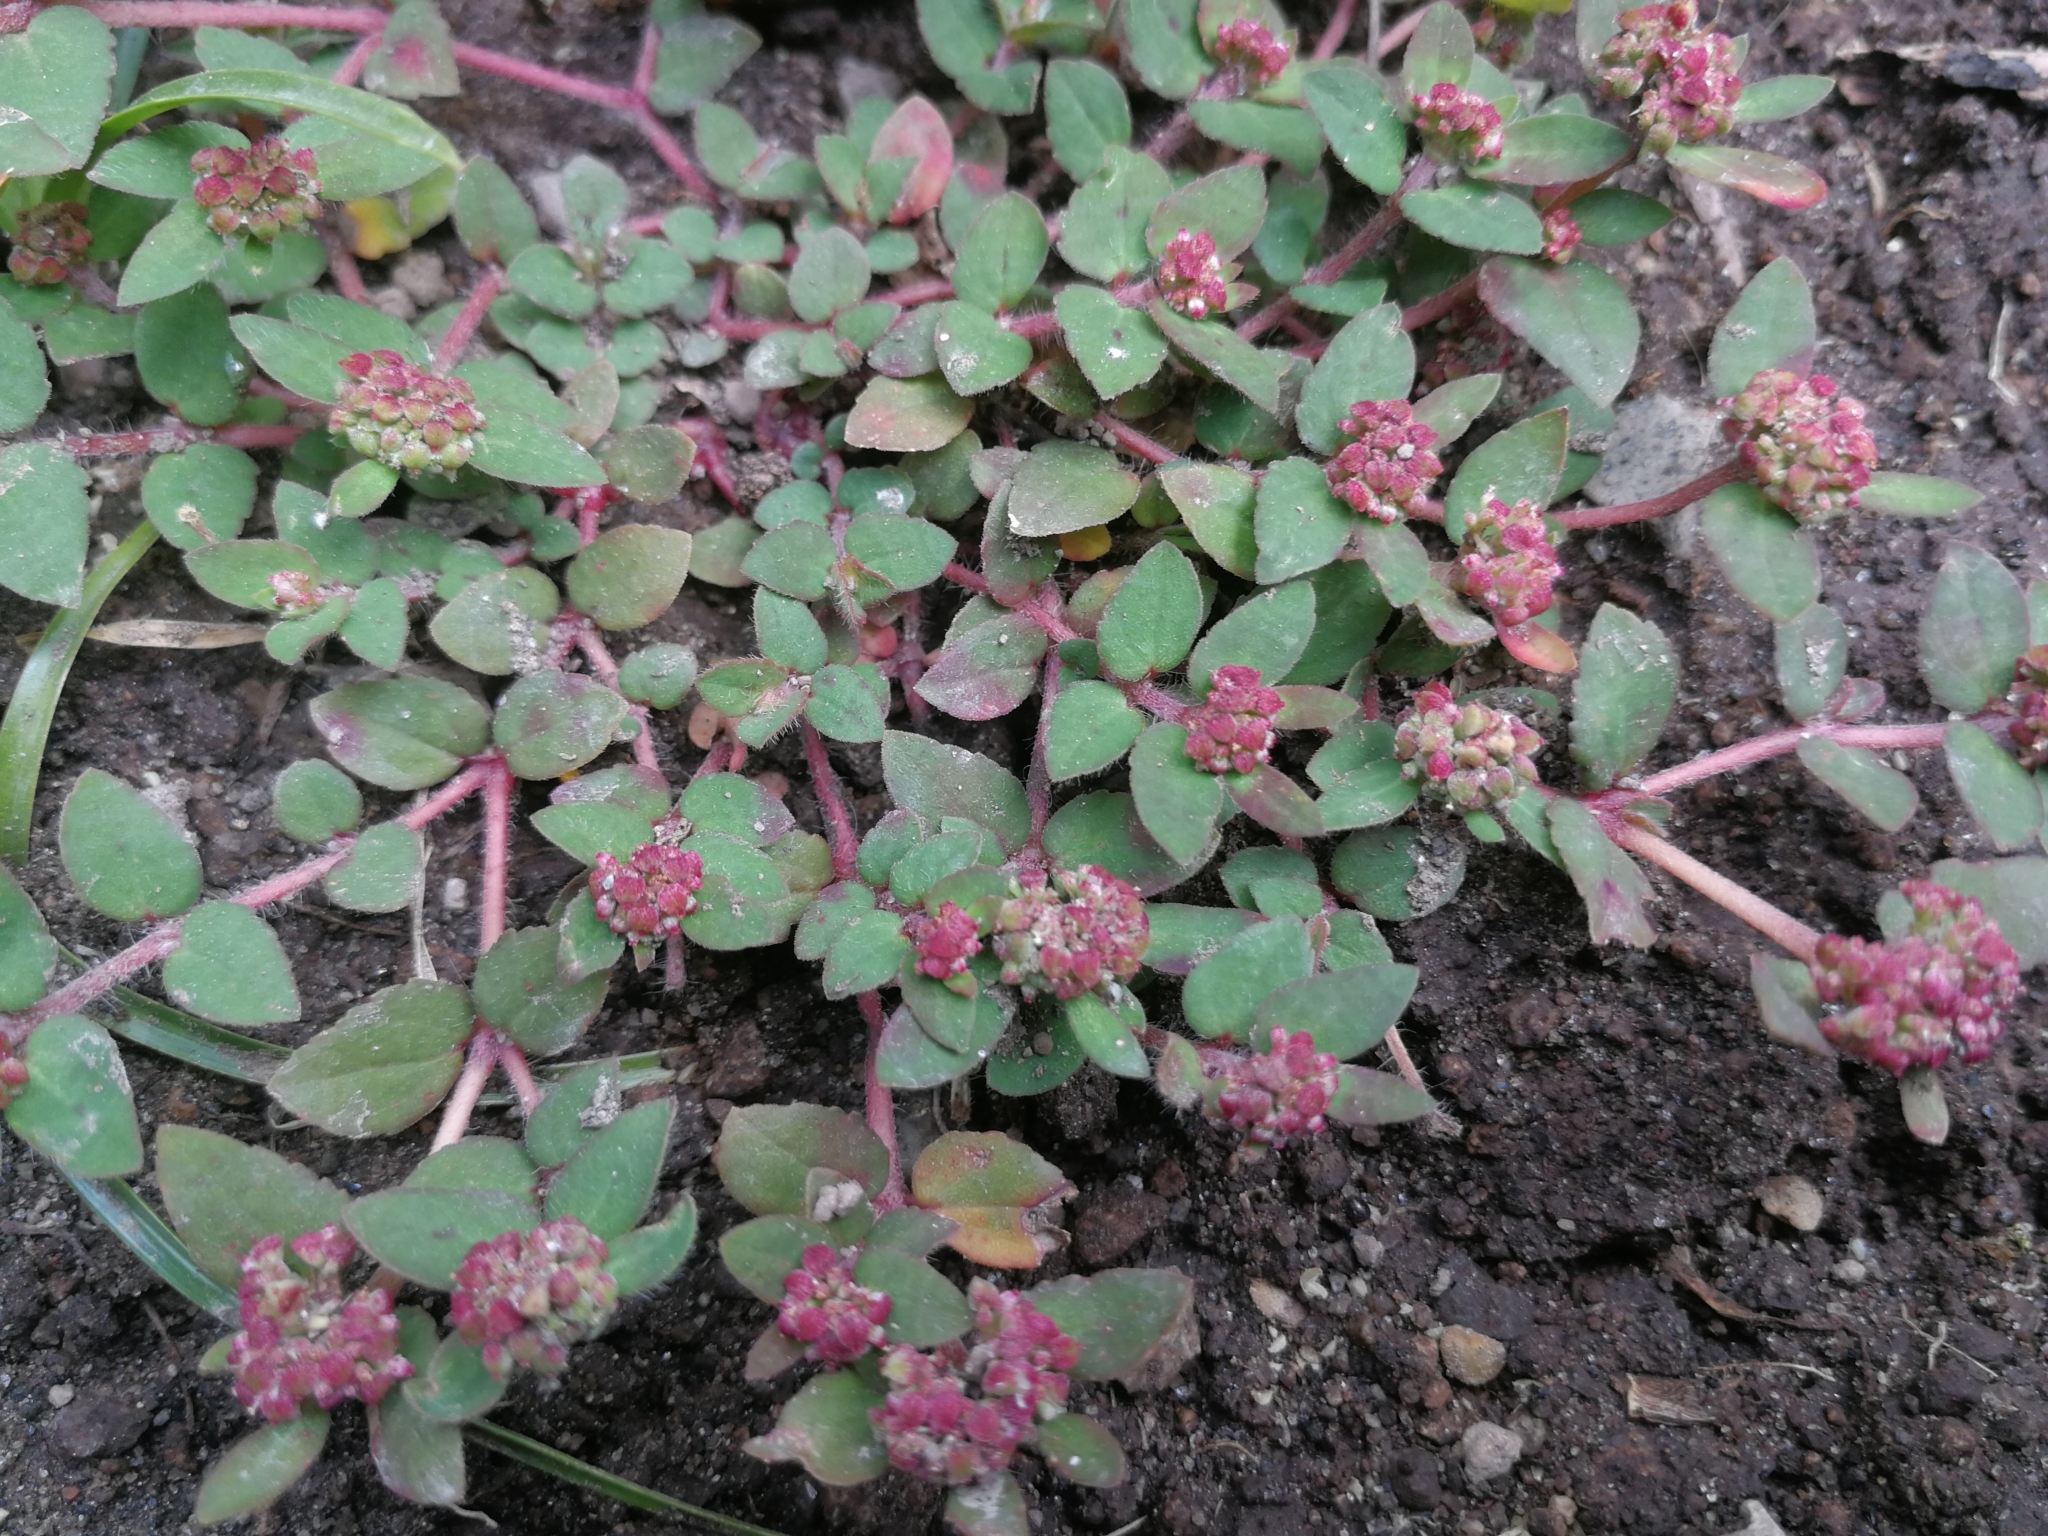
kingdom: Plantae
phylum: Tracheophyta
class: Magnoliopsida
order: Malpighiales
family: Euphorbiaceae
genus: Euphorbia
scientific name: Euphorbia ophthalmica
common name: Florida hammock sandmat
